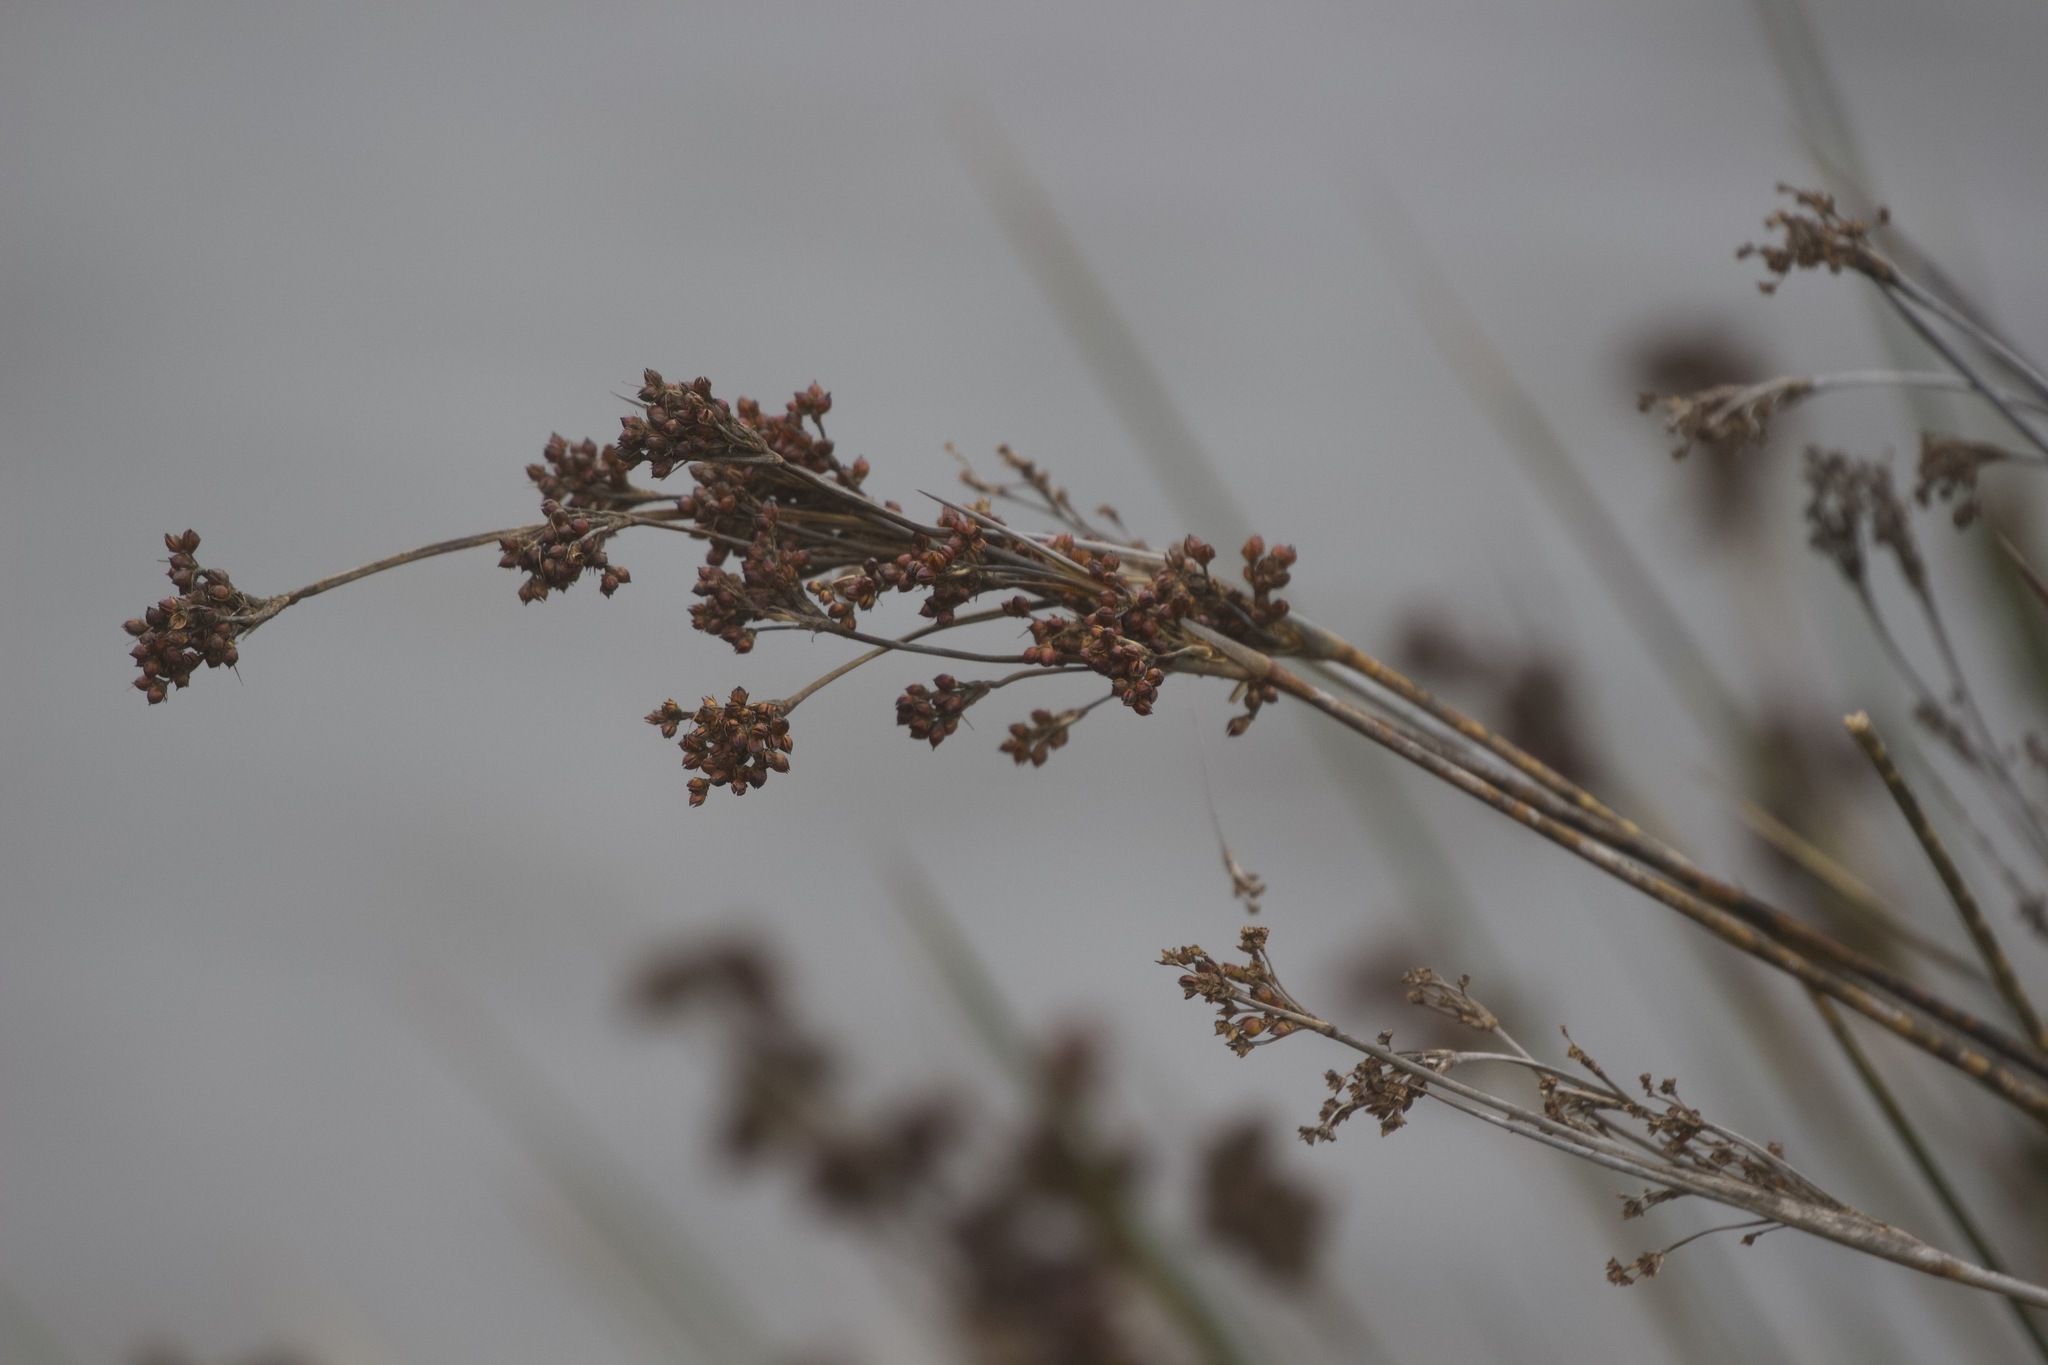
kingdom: Plantae
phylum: Tracheophyta
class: Liliopsida
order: Poales
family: Juncaceae
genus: Juncus
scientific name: Juncus acutus
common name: Sharp rush
